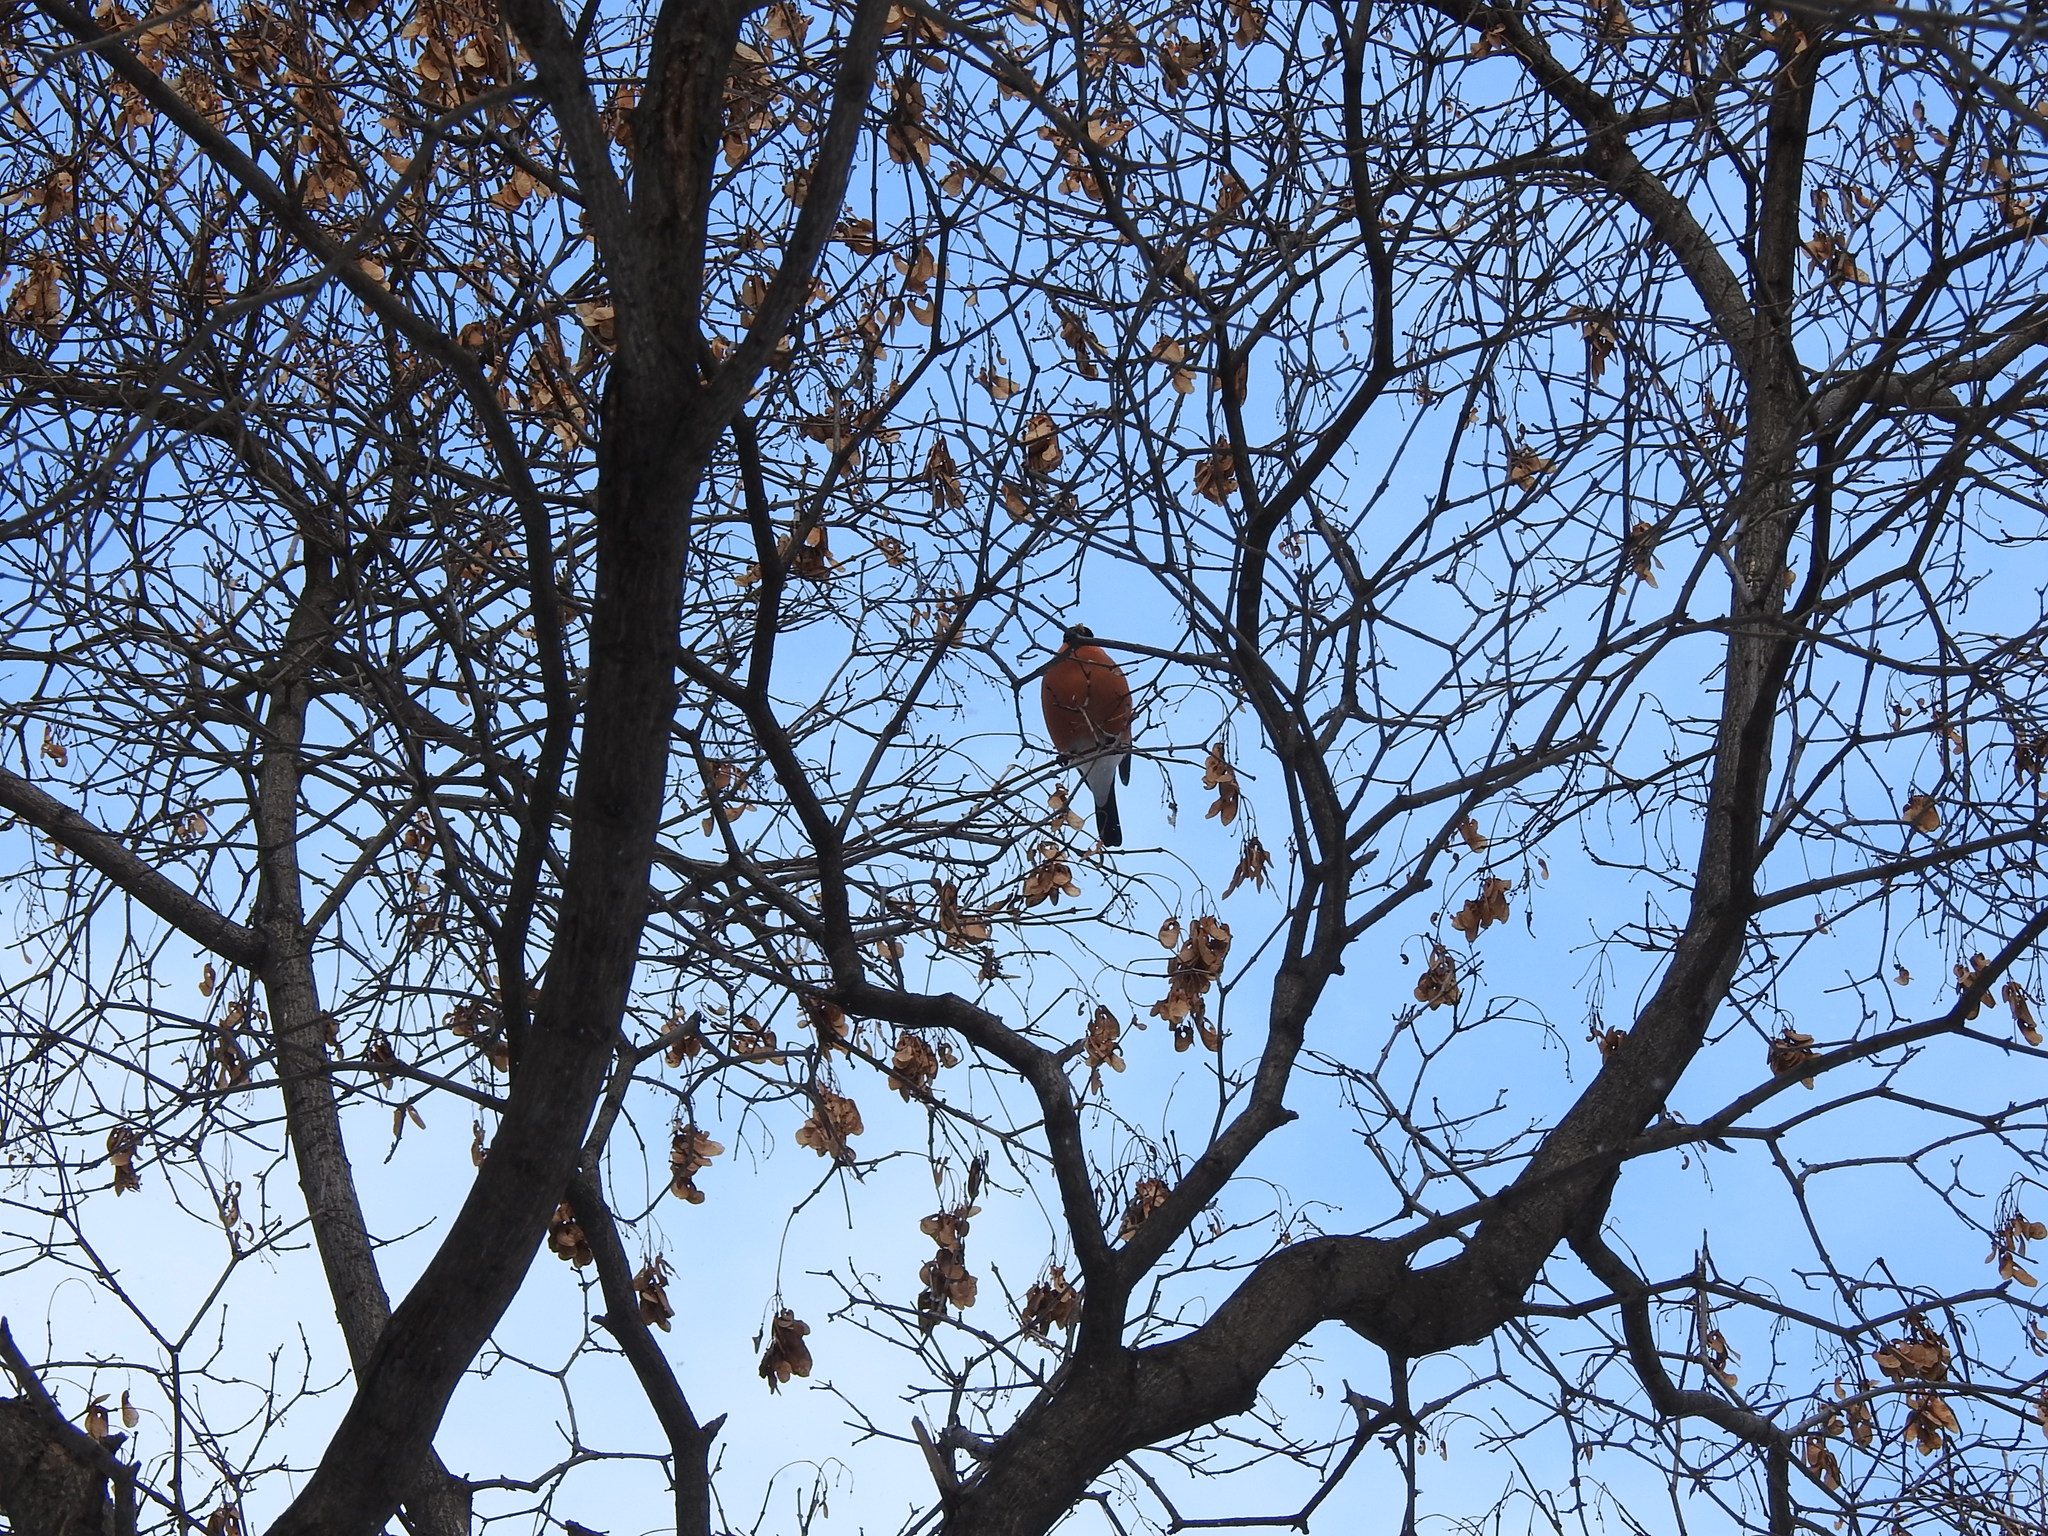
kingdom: Animalia
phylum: Chordata
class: Aves
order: Passeriformes
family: Fringillidae
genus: Pyrrhula
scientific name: Pyrrhula pyrrhula
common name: Eurasian bullfinch
